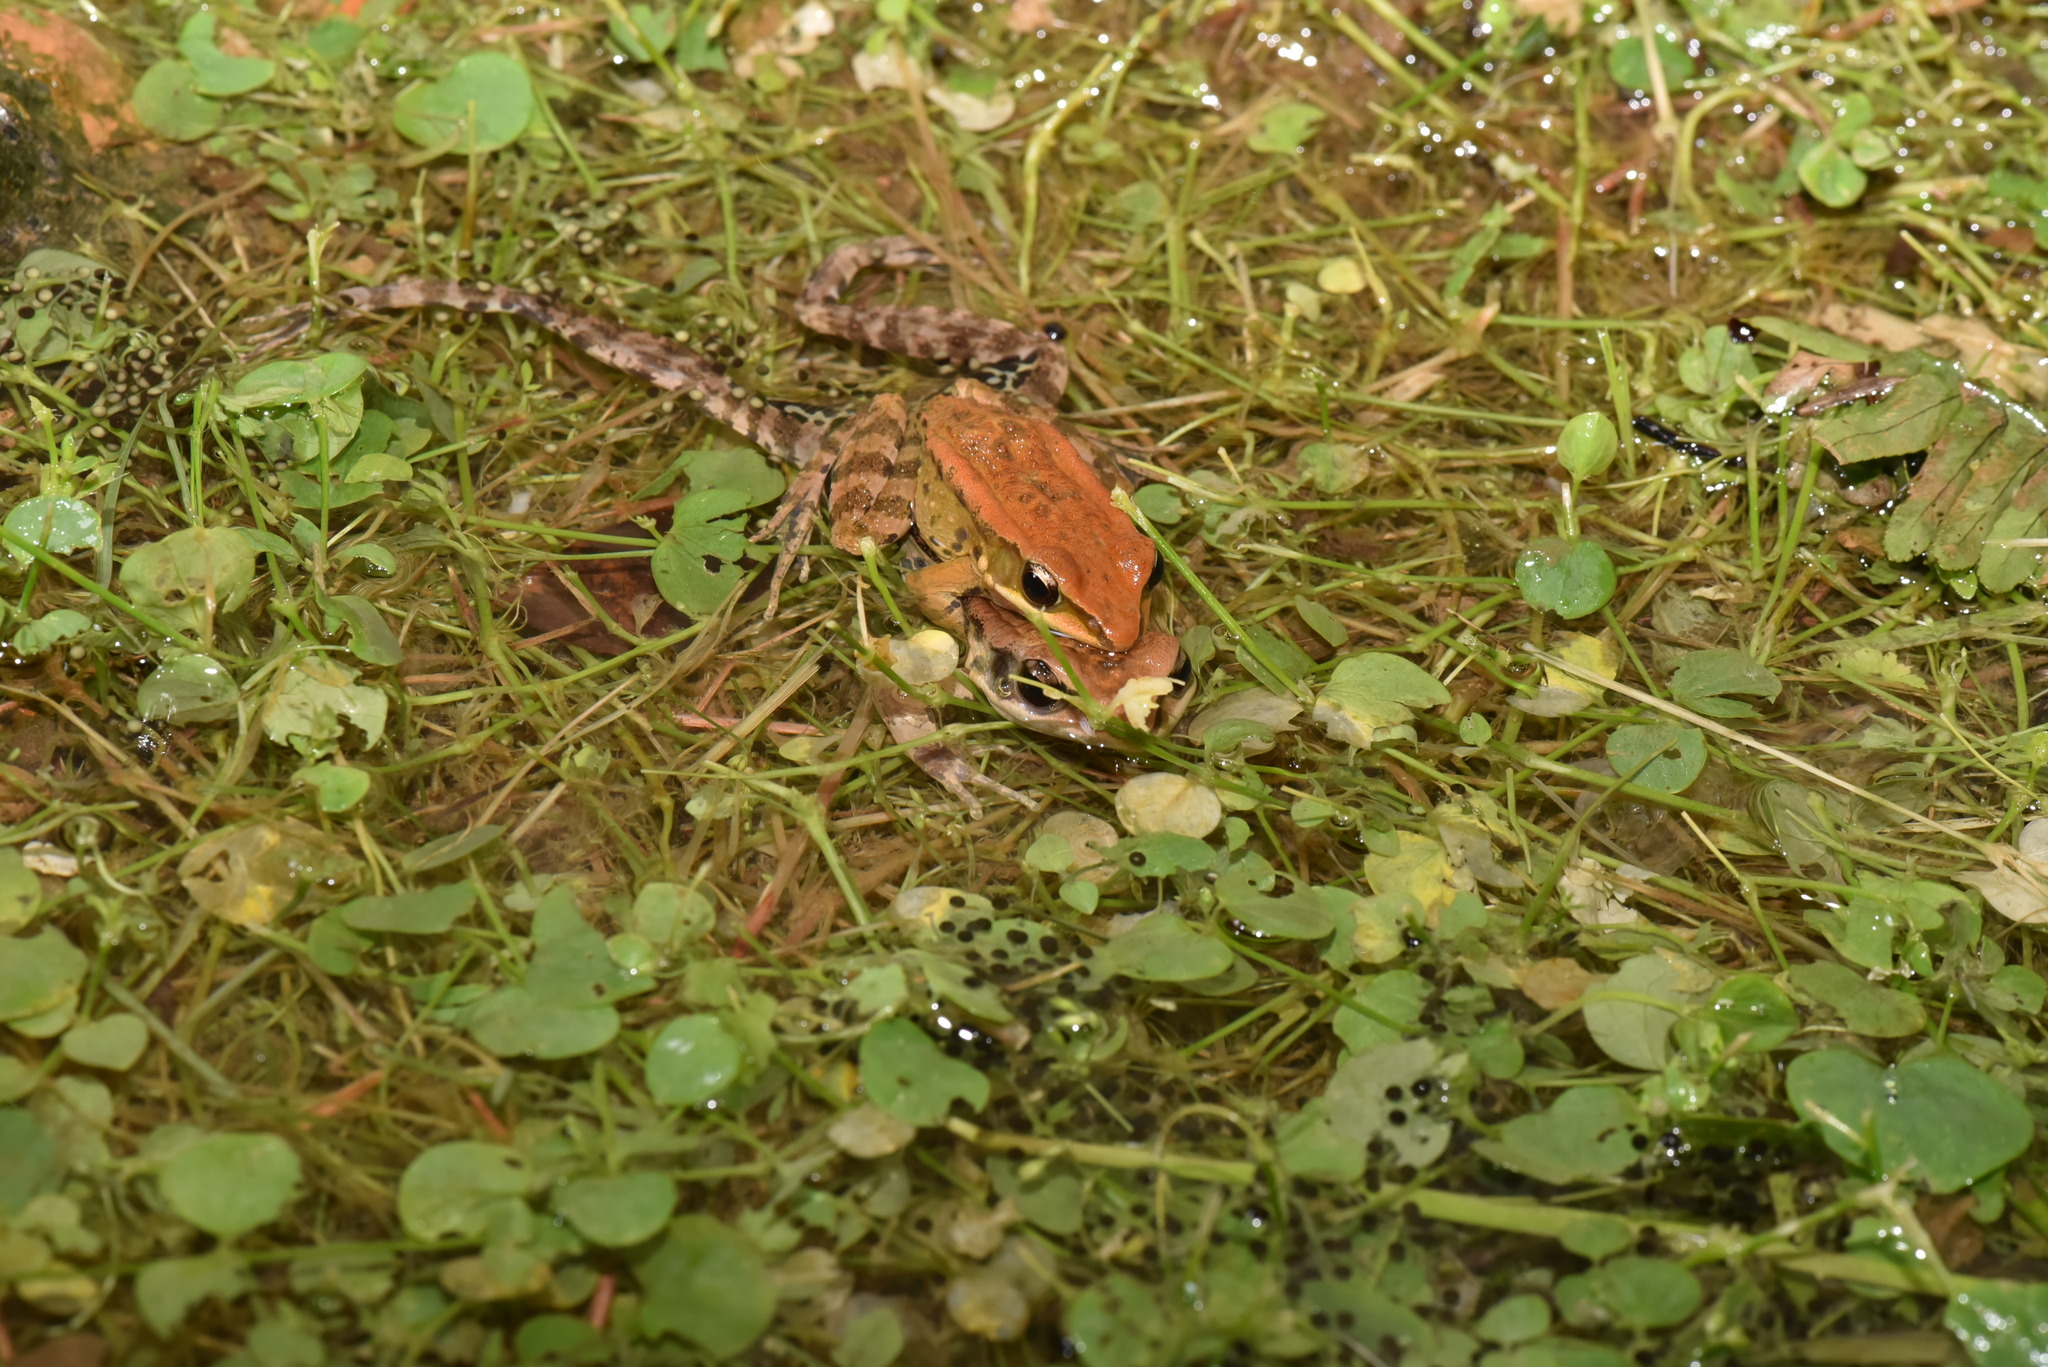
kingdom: Animalia
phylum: Chordata
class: Amphibia
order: Anura
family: Ranidae
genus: Hylarana
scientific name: Hylarana latouchii
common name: Broad-folded frog
